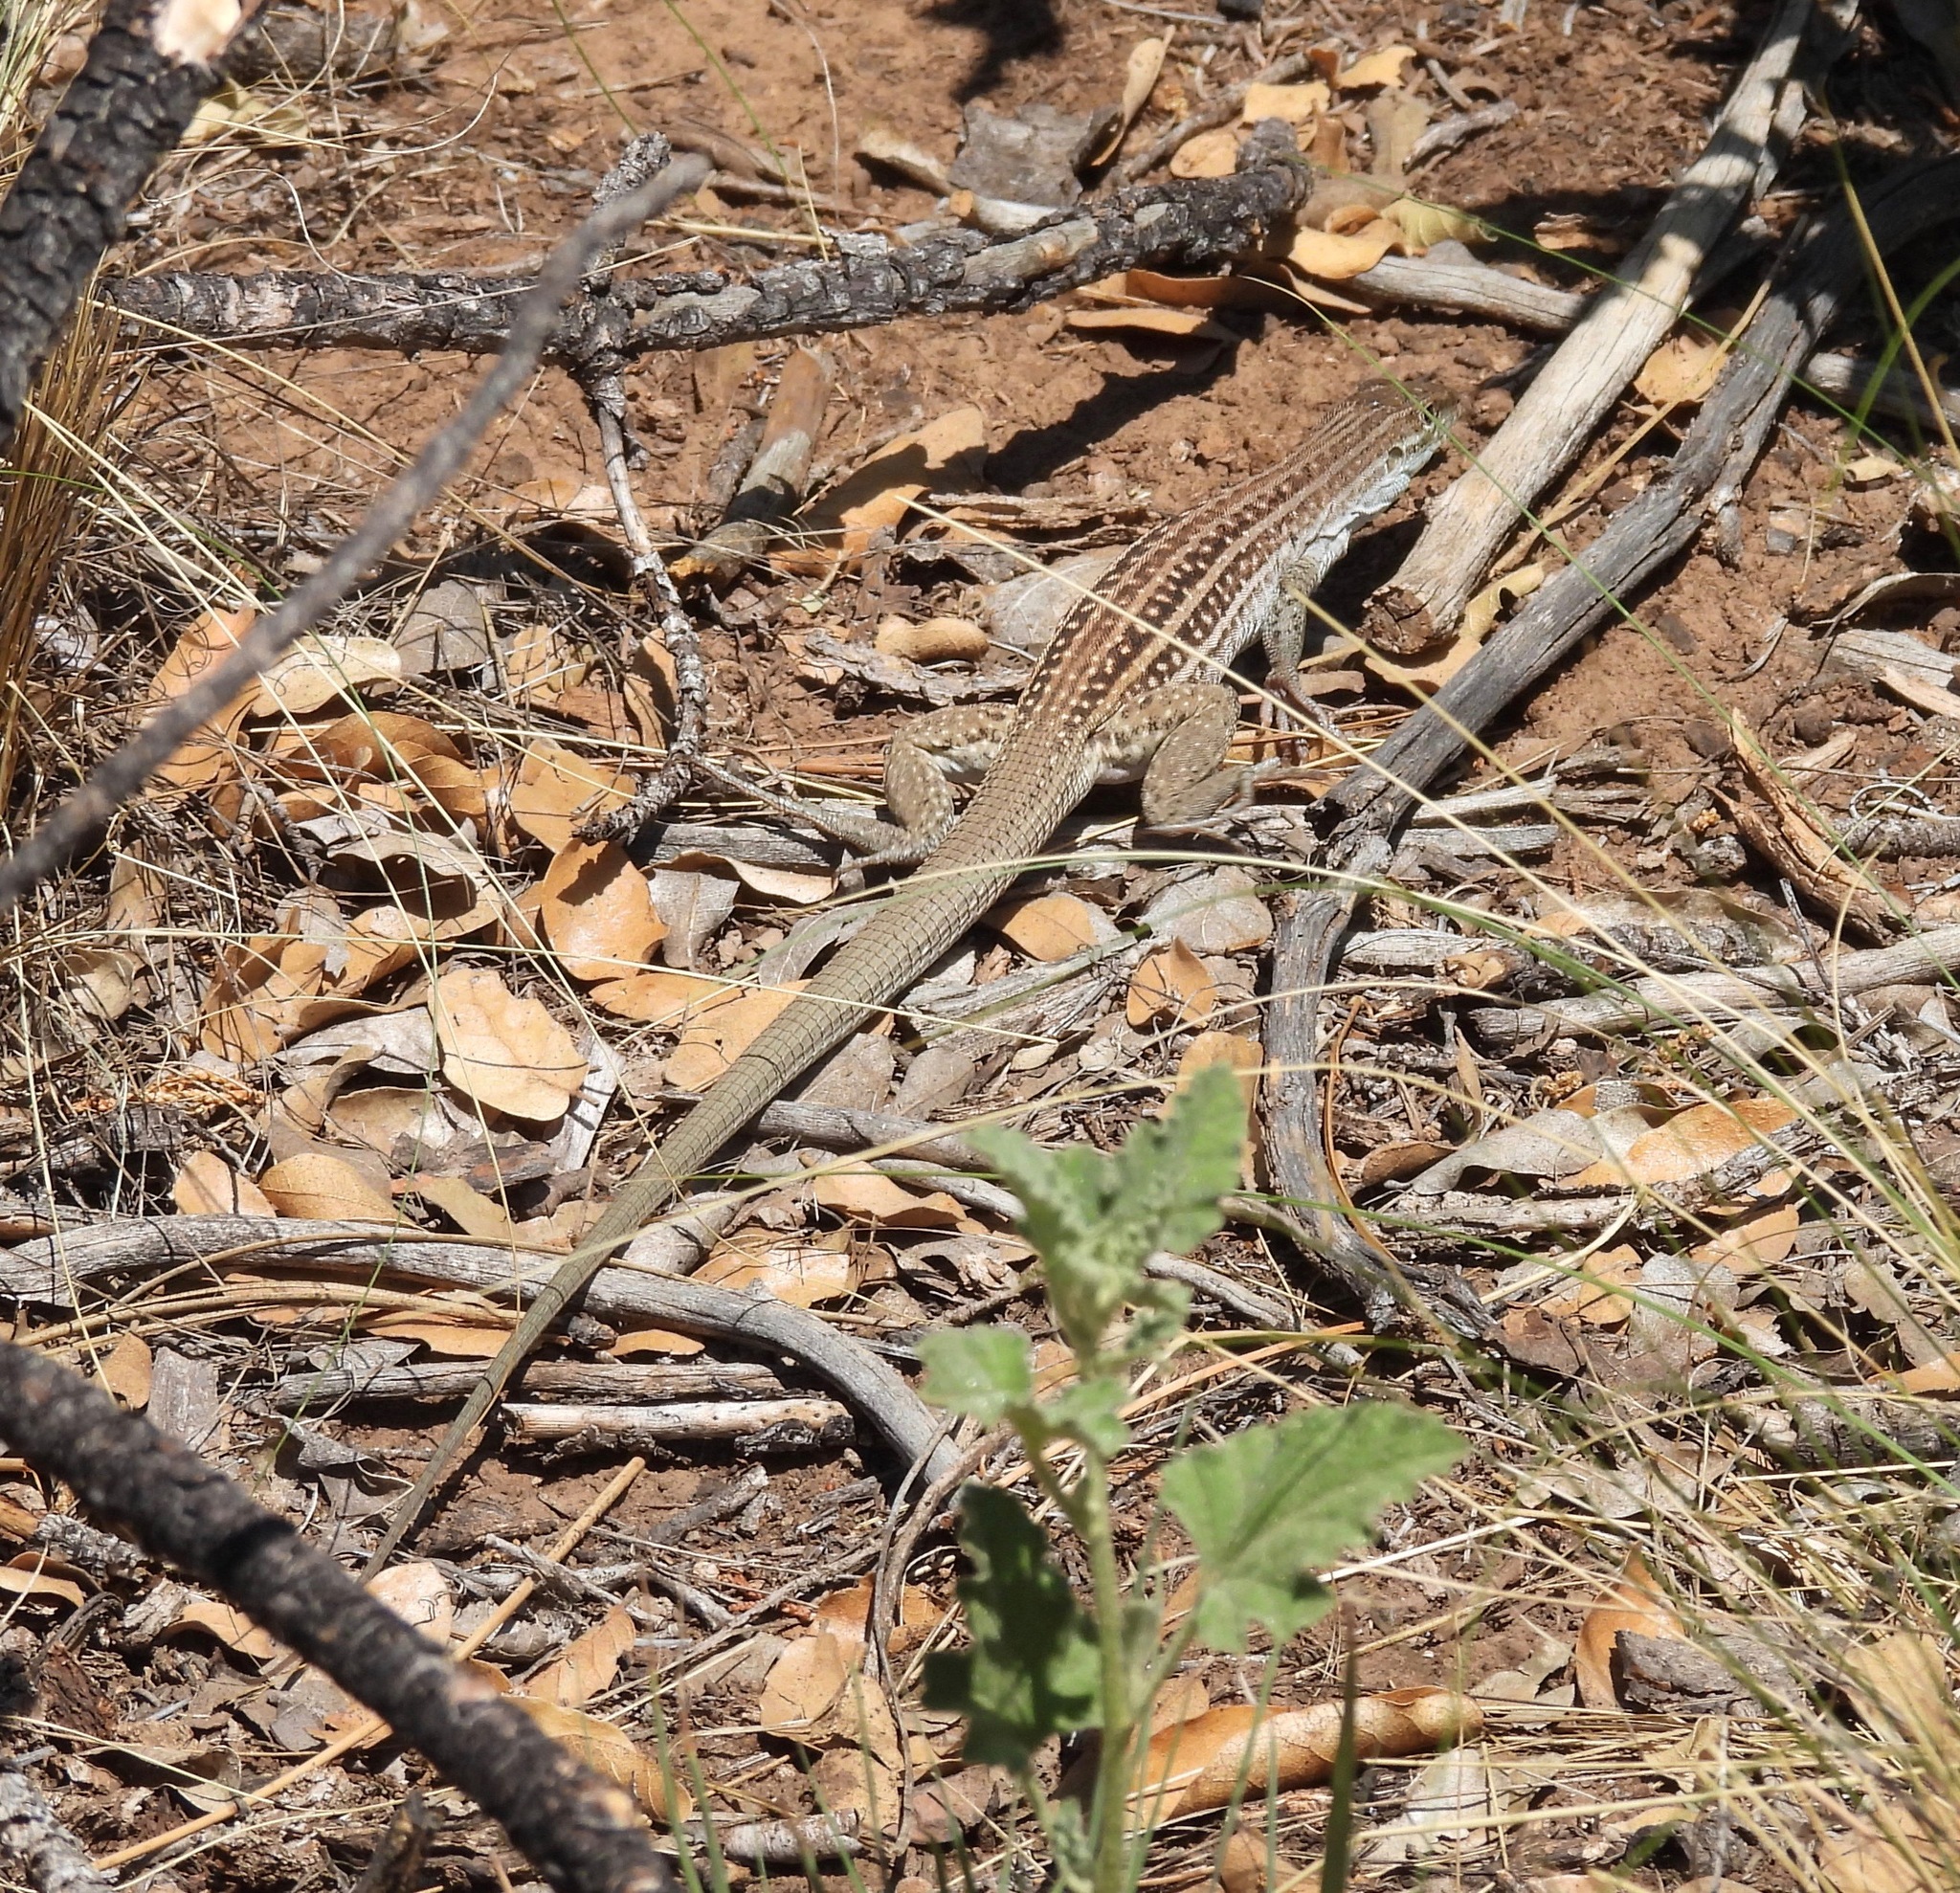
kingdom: Animalia
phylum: Chordata
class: Squamata
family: Teiidae
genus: Aspidoscelis
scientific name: Aspidoscelis exsanguis
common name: Chihuahuan spotted whiptail
